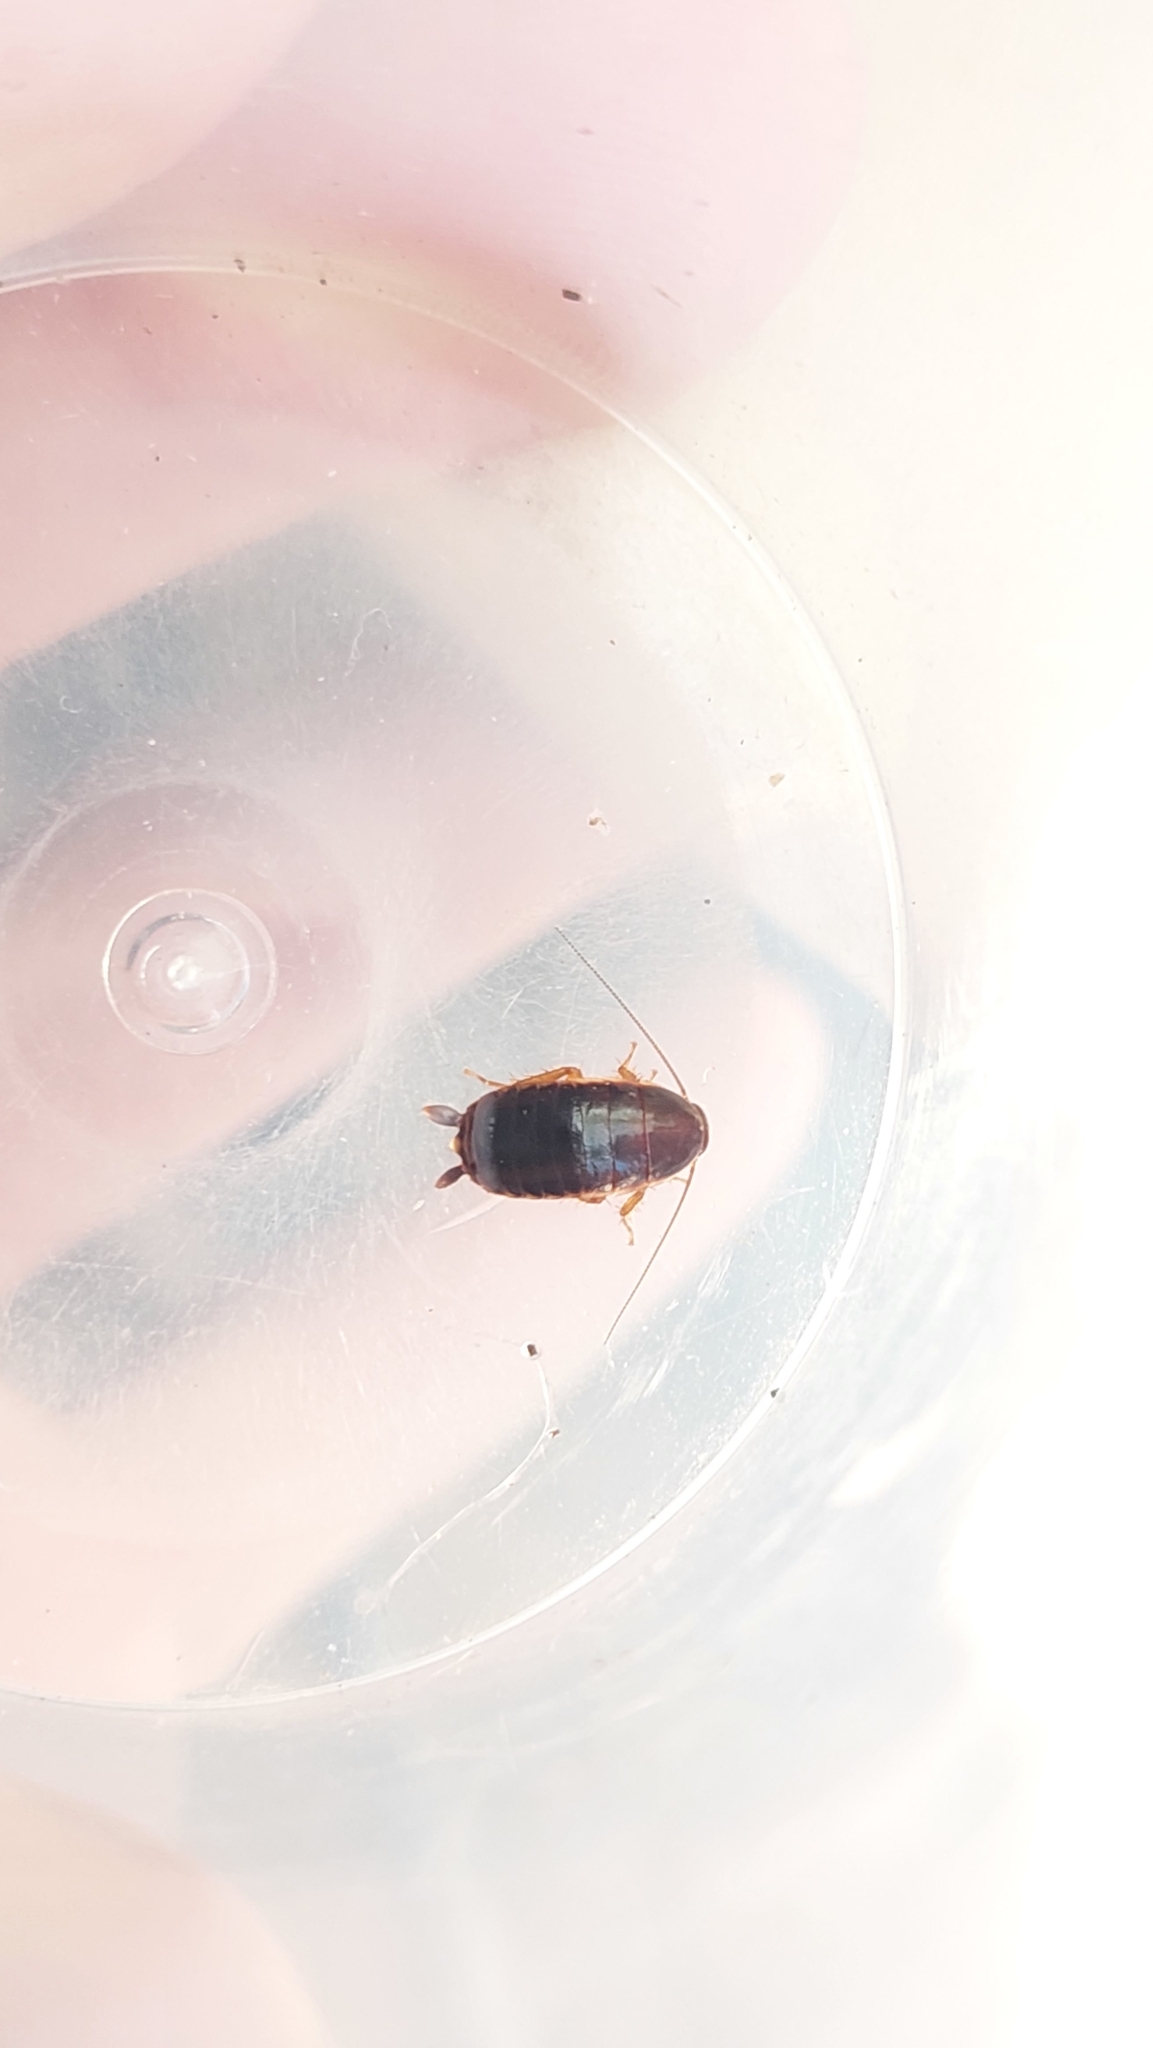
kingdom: Animalia
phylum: Arthropoda
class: Insecta
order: Blattodea
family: Ectobiidae
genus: Loboptera
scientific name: Loboptera decipiens
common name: Lobe-winged cockroach
